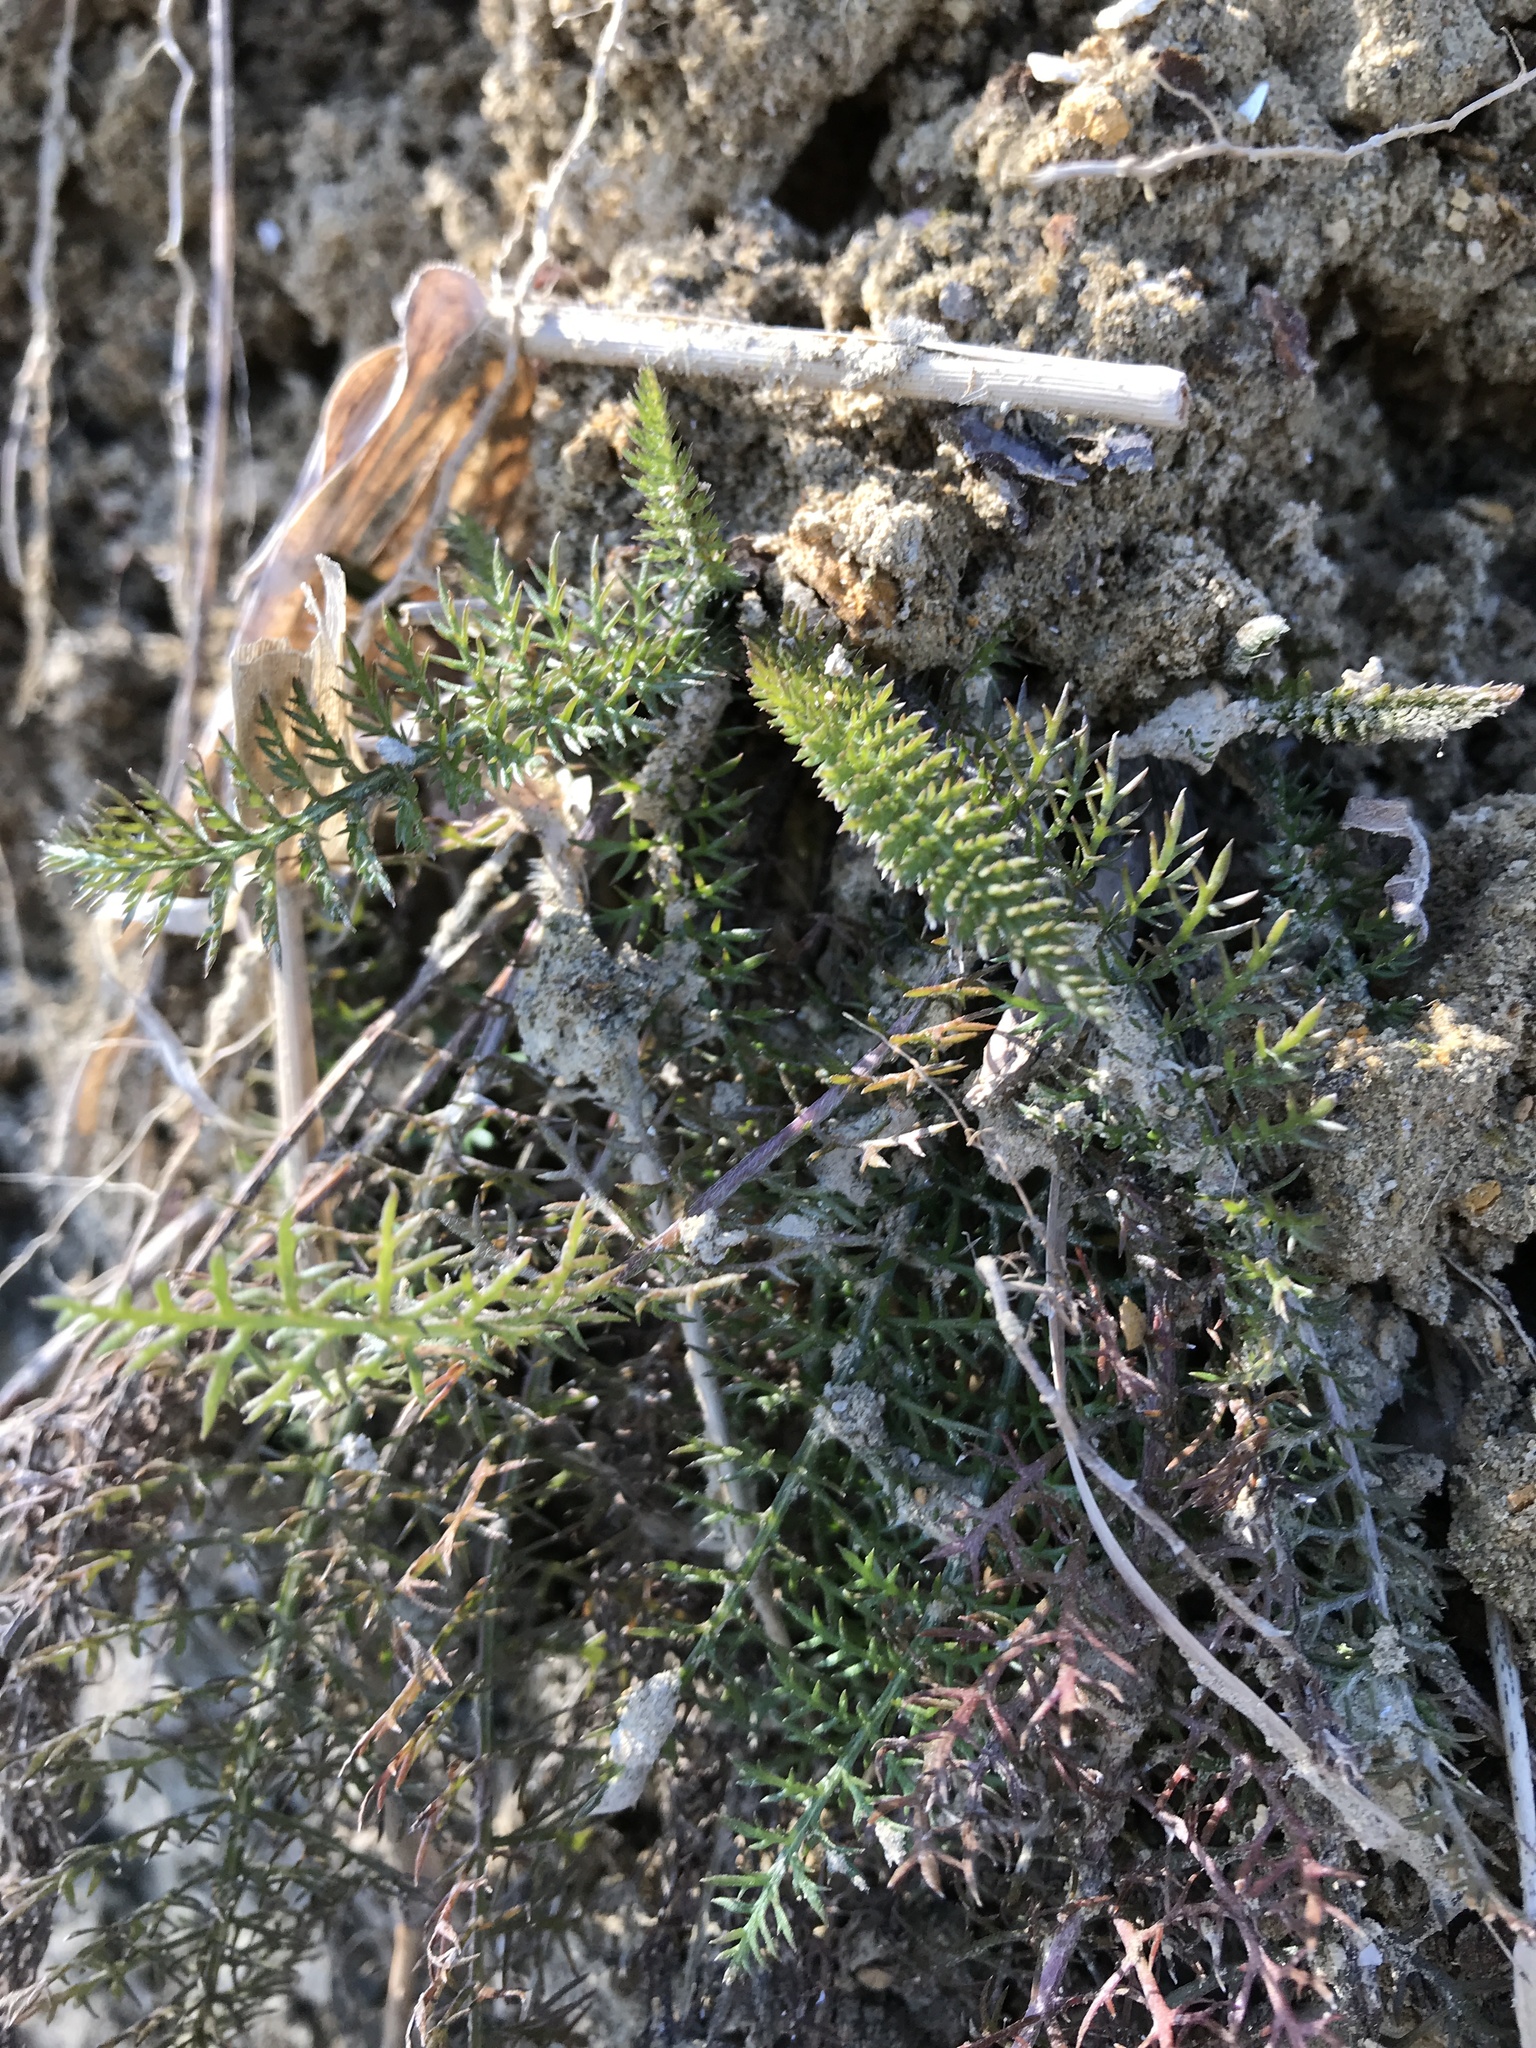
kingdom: Plantae
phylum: Tracheophyta
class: Magnoliopsida
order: Asterales
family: Asteraceae
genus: Achillea
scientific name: Achillea millefolium
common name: Yarrow
